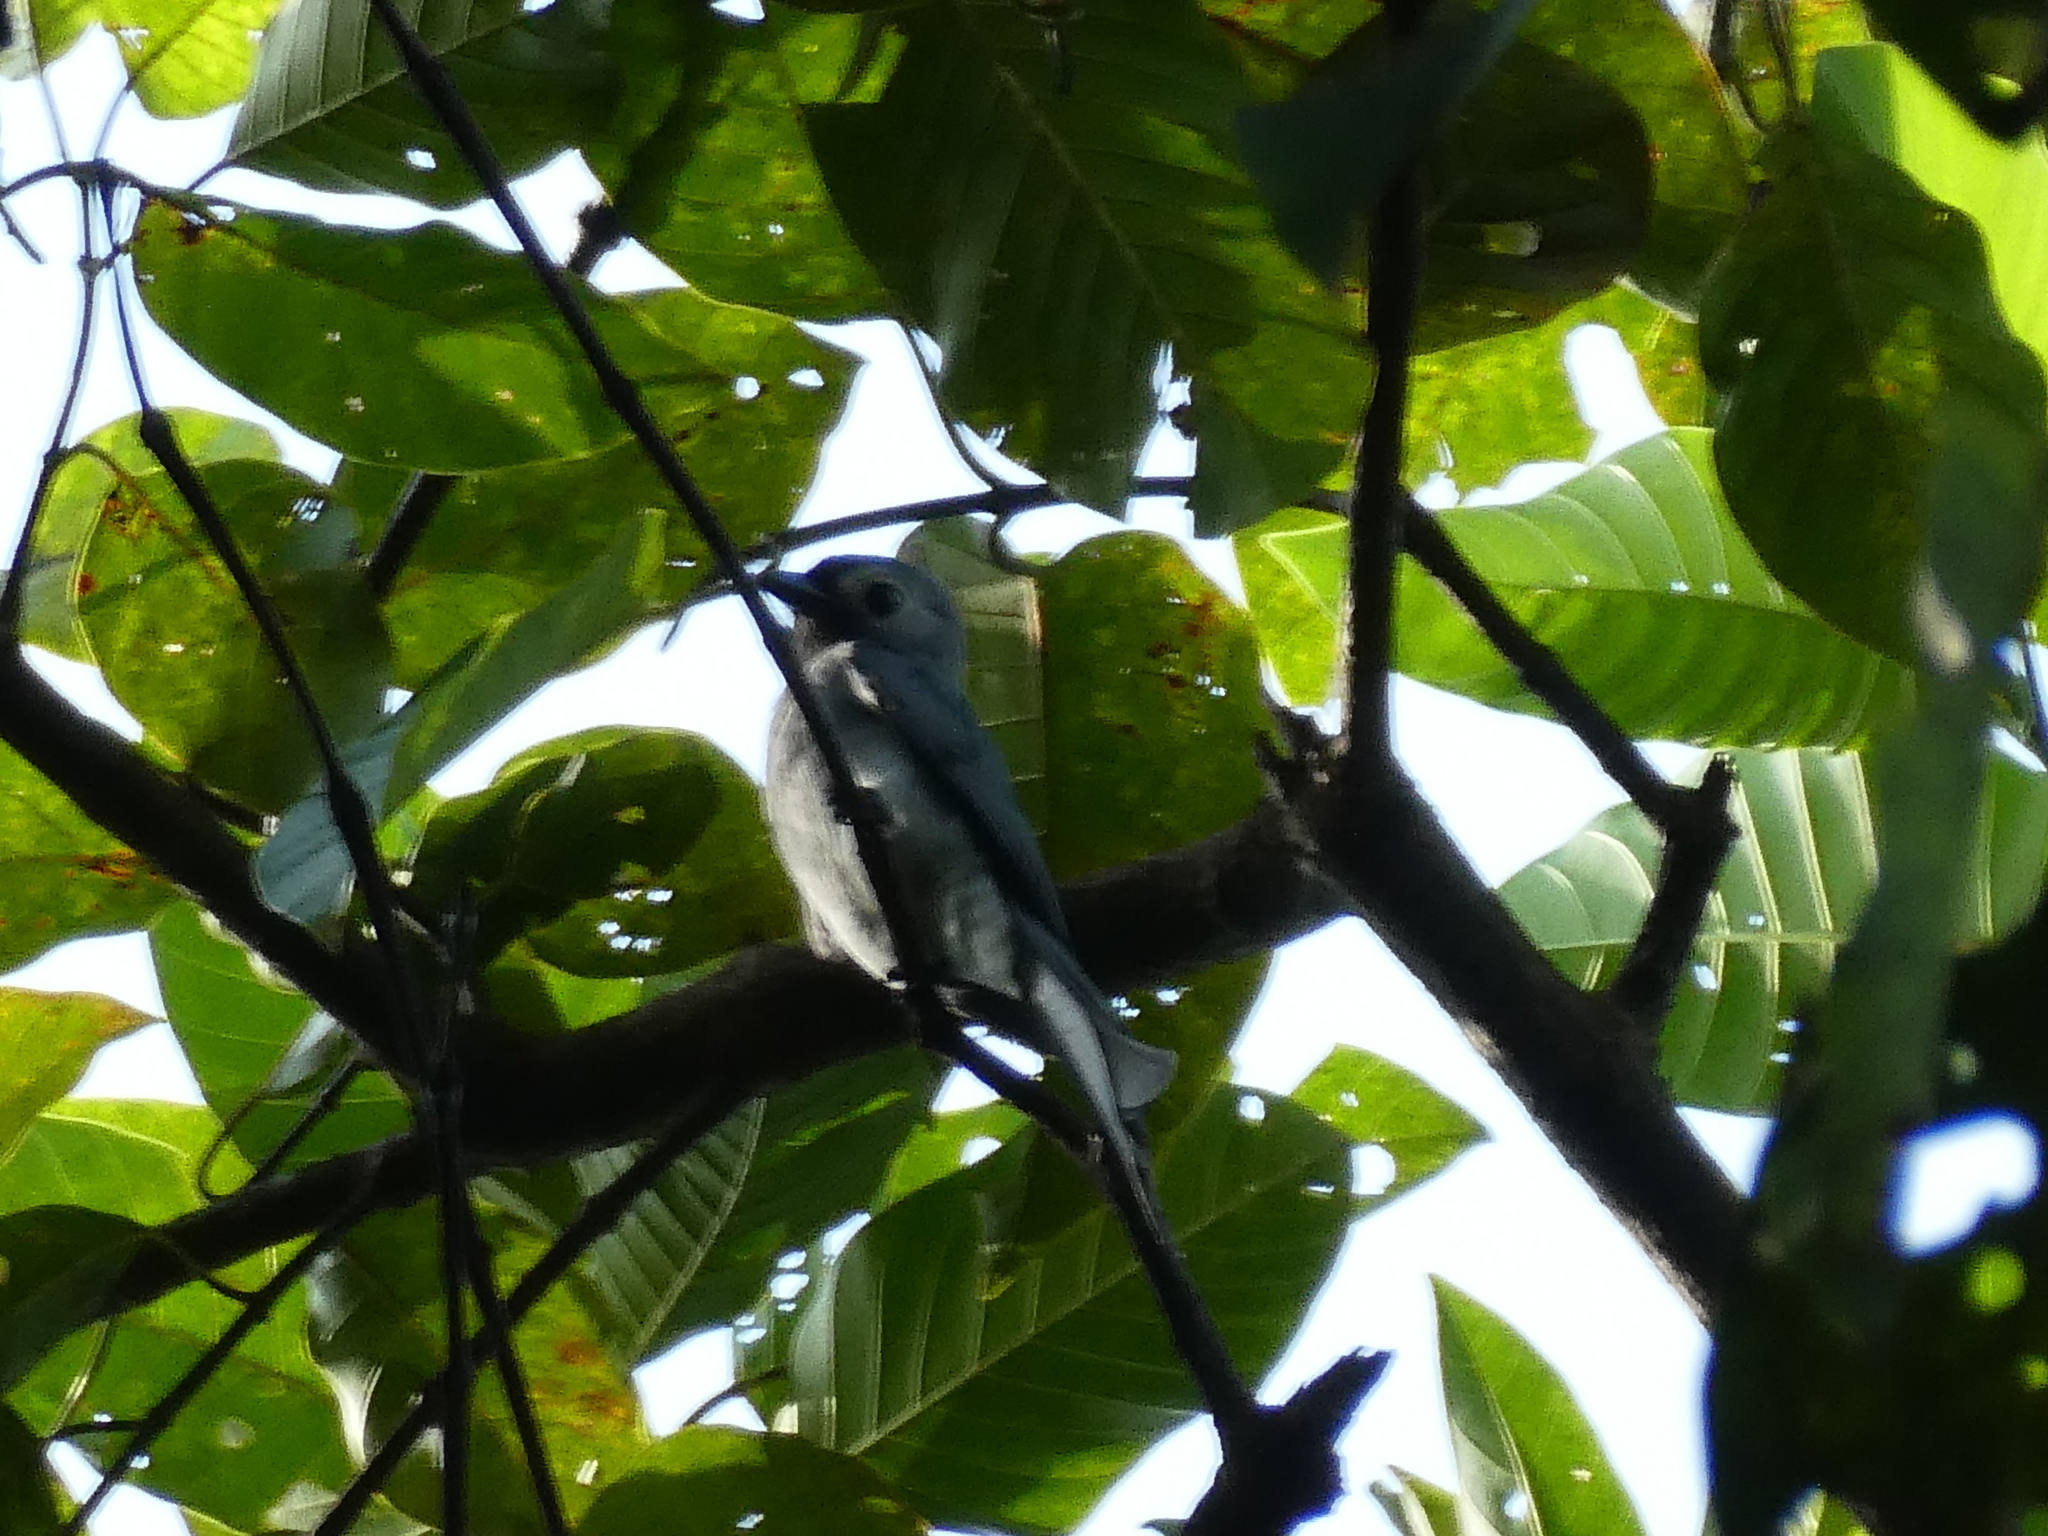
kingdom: Animalia
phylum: Chordata
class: Aves
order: Passeriformes
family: Dicruridae
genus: Dicrurus
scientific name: Dicrurus leucophaeus
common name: Ashy drongo
